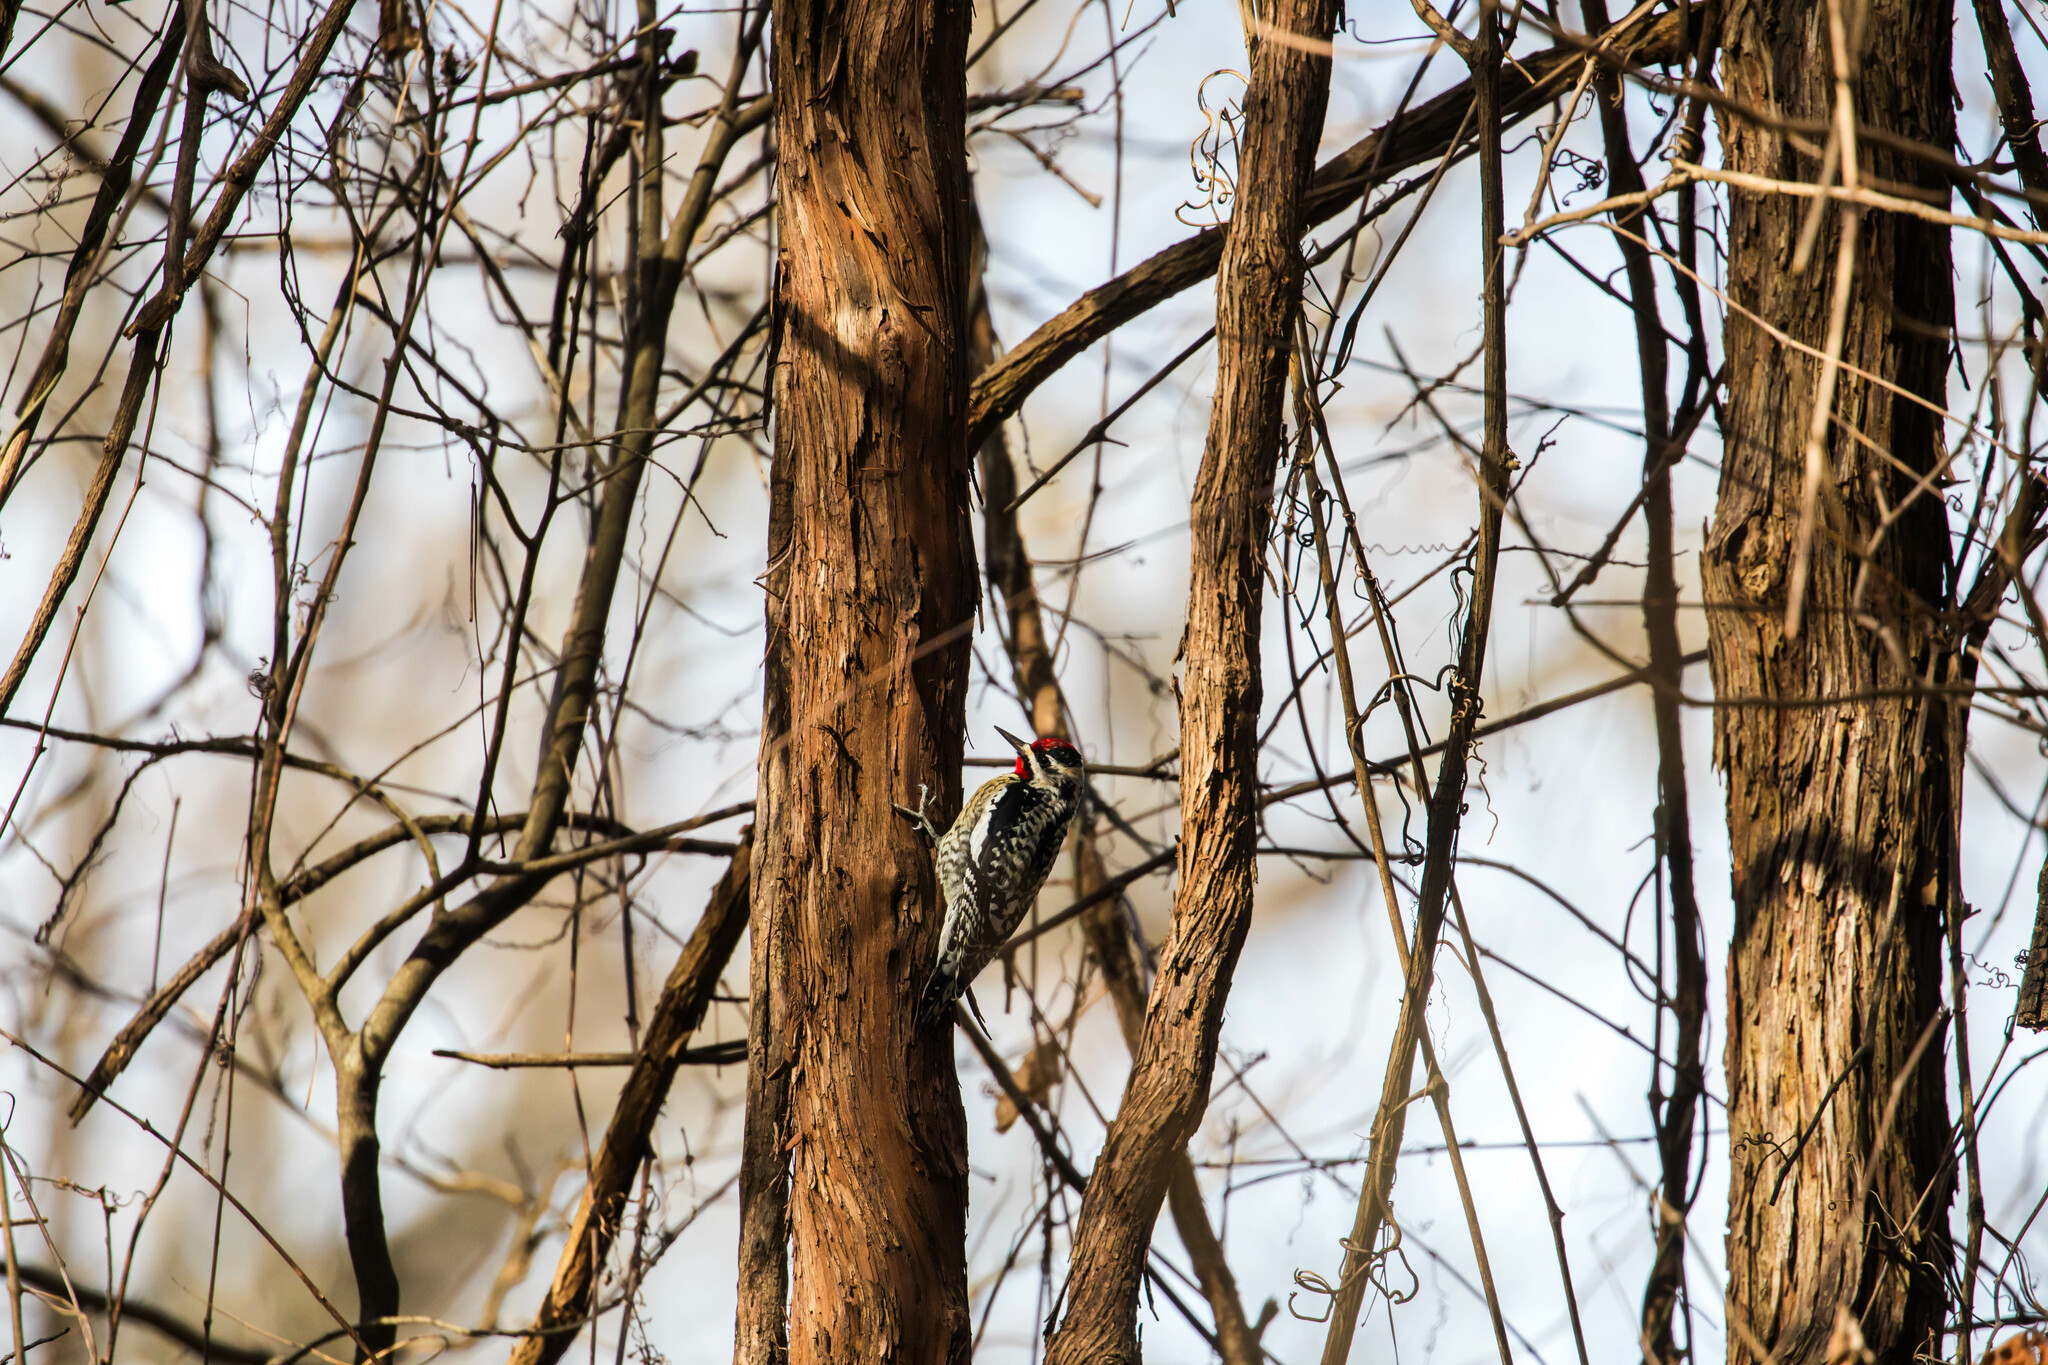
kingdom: Animalia
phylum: Chordata
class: Aves
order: Piciformes
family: Picidae
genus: Sphyrapicus
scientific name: Sphyrapicus varius
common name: Yellow-bellied sapsucker
